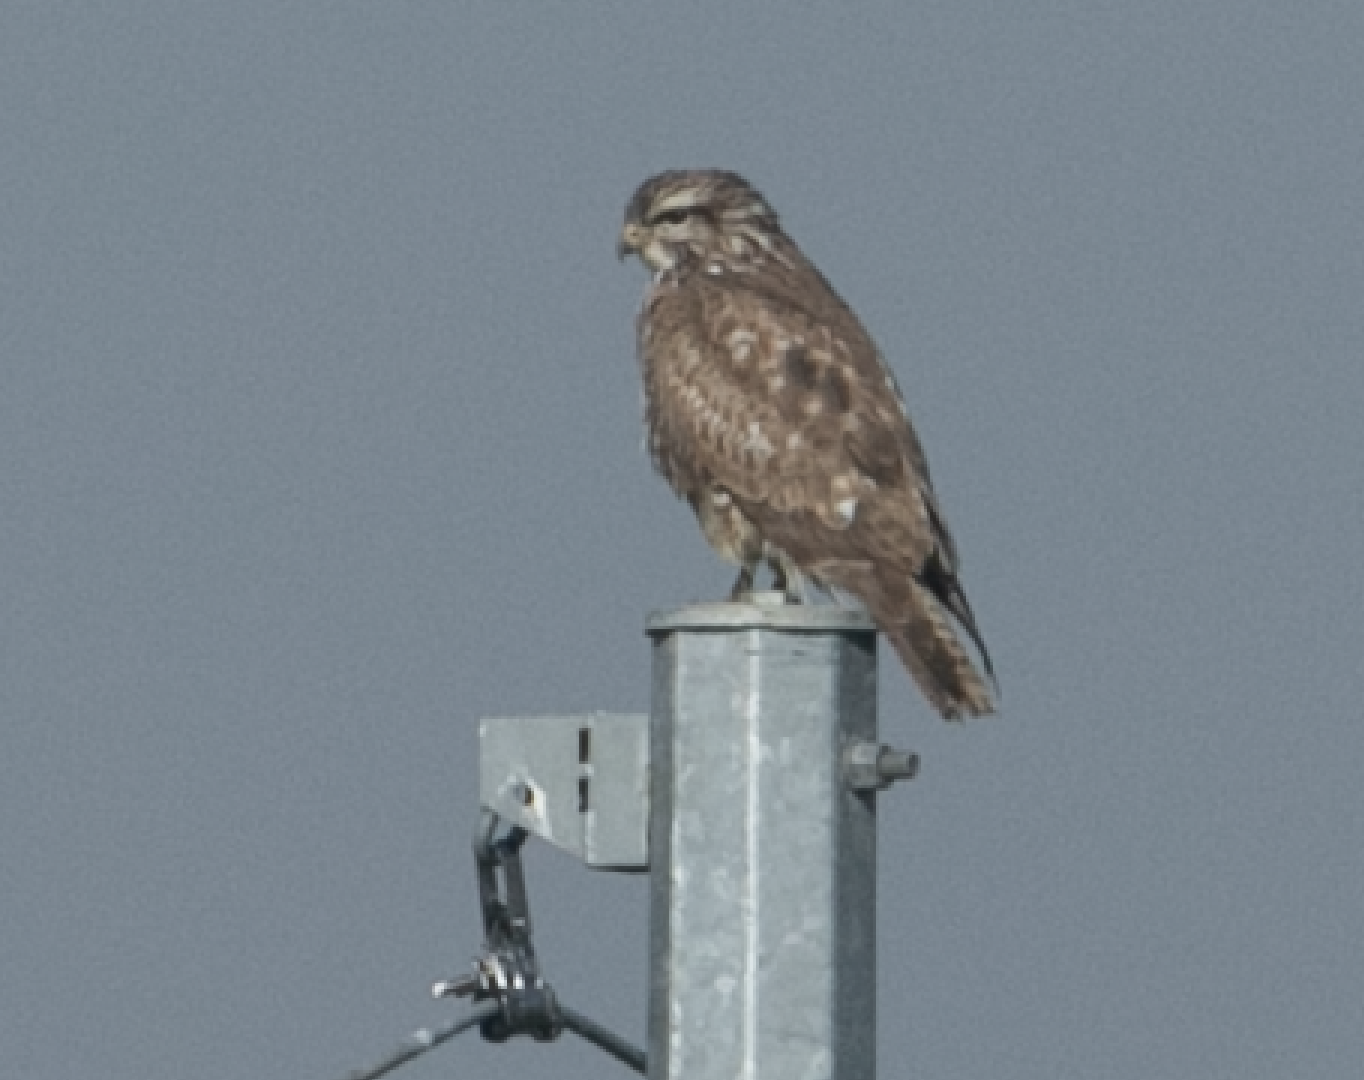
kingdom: Animalia
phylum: Chordata
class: Aves
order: Accipitriformes
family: Accipitridae
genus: Buteo
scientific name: Buteo buteo
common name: Common buzzard
